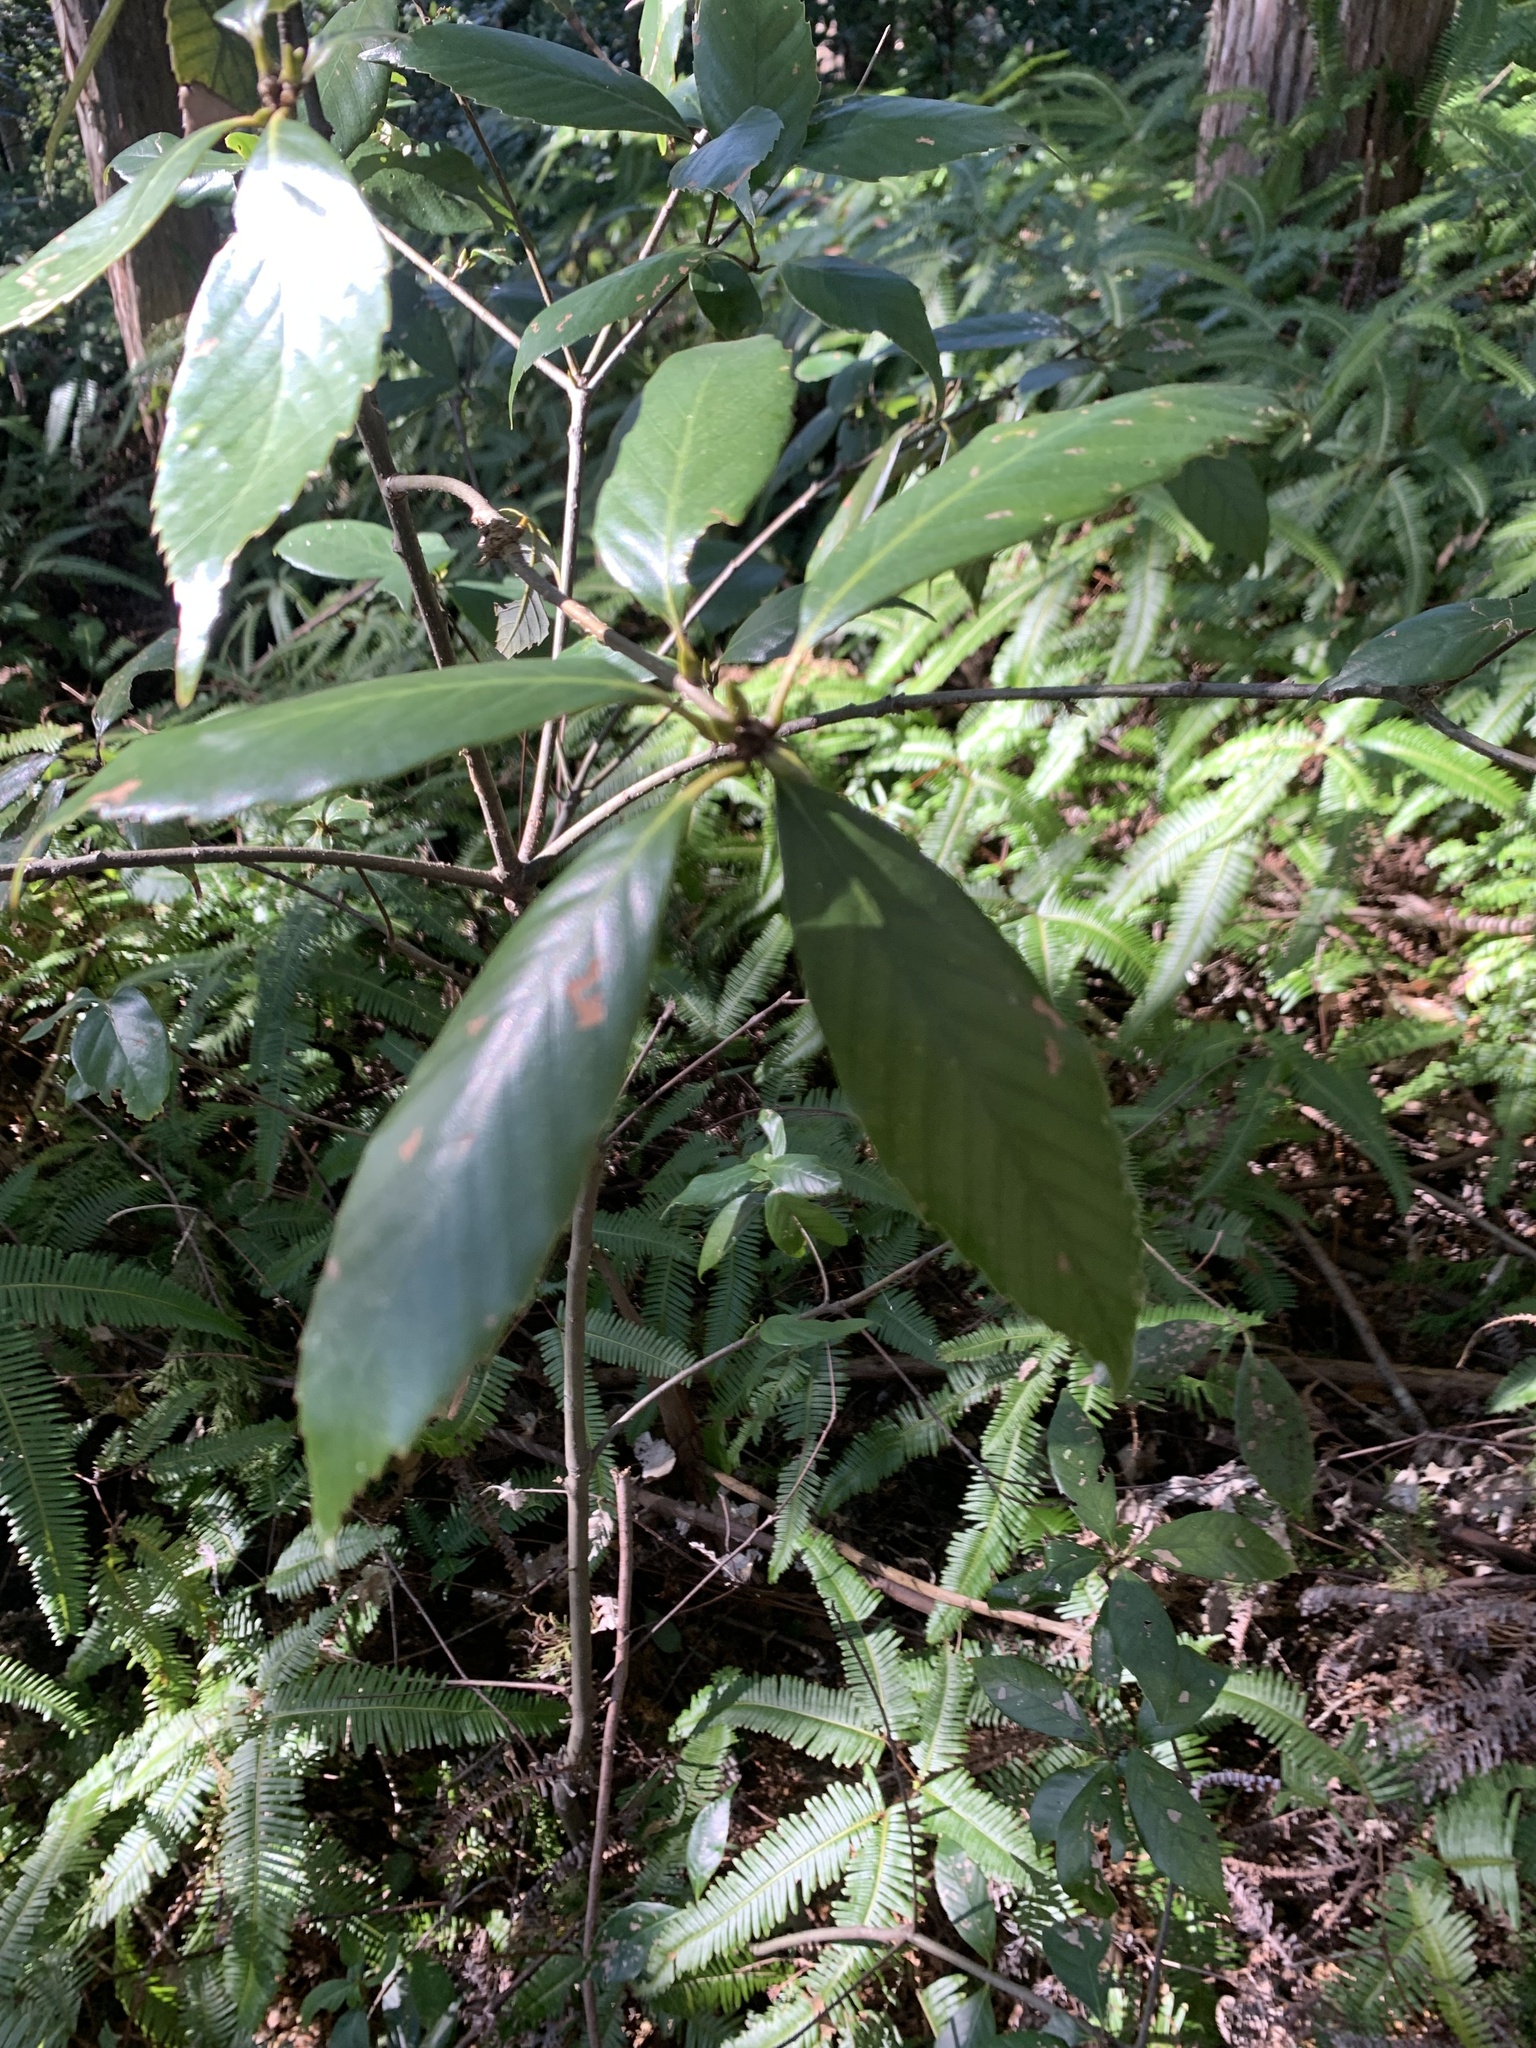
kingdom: Plantae
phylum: Tracheophyta
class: Magnoliopsida
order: Fagales
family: Fagaceae
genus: Quercus
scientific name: Quercus glauca
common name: Ring-cup oak
